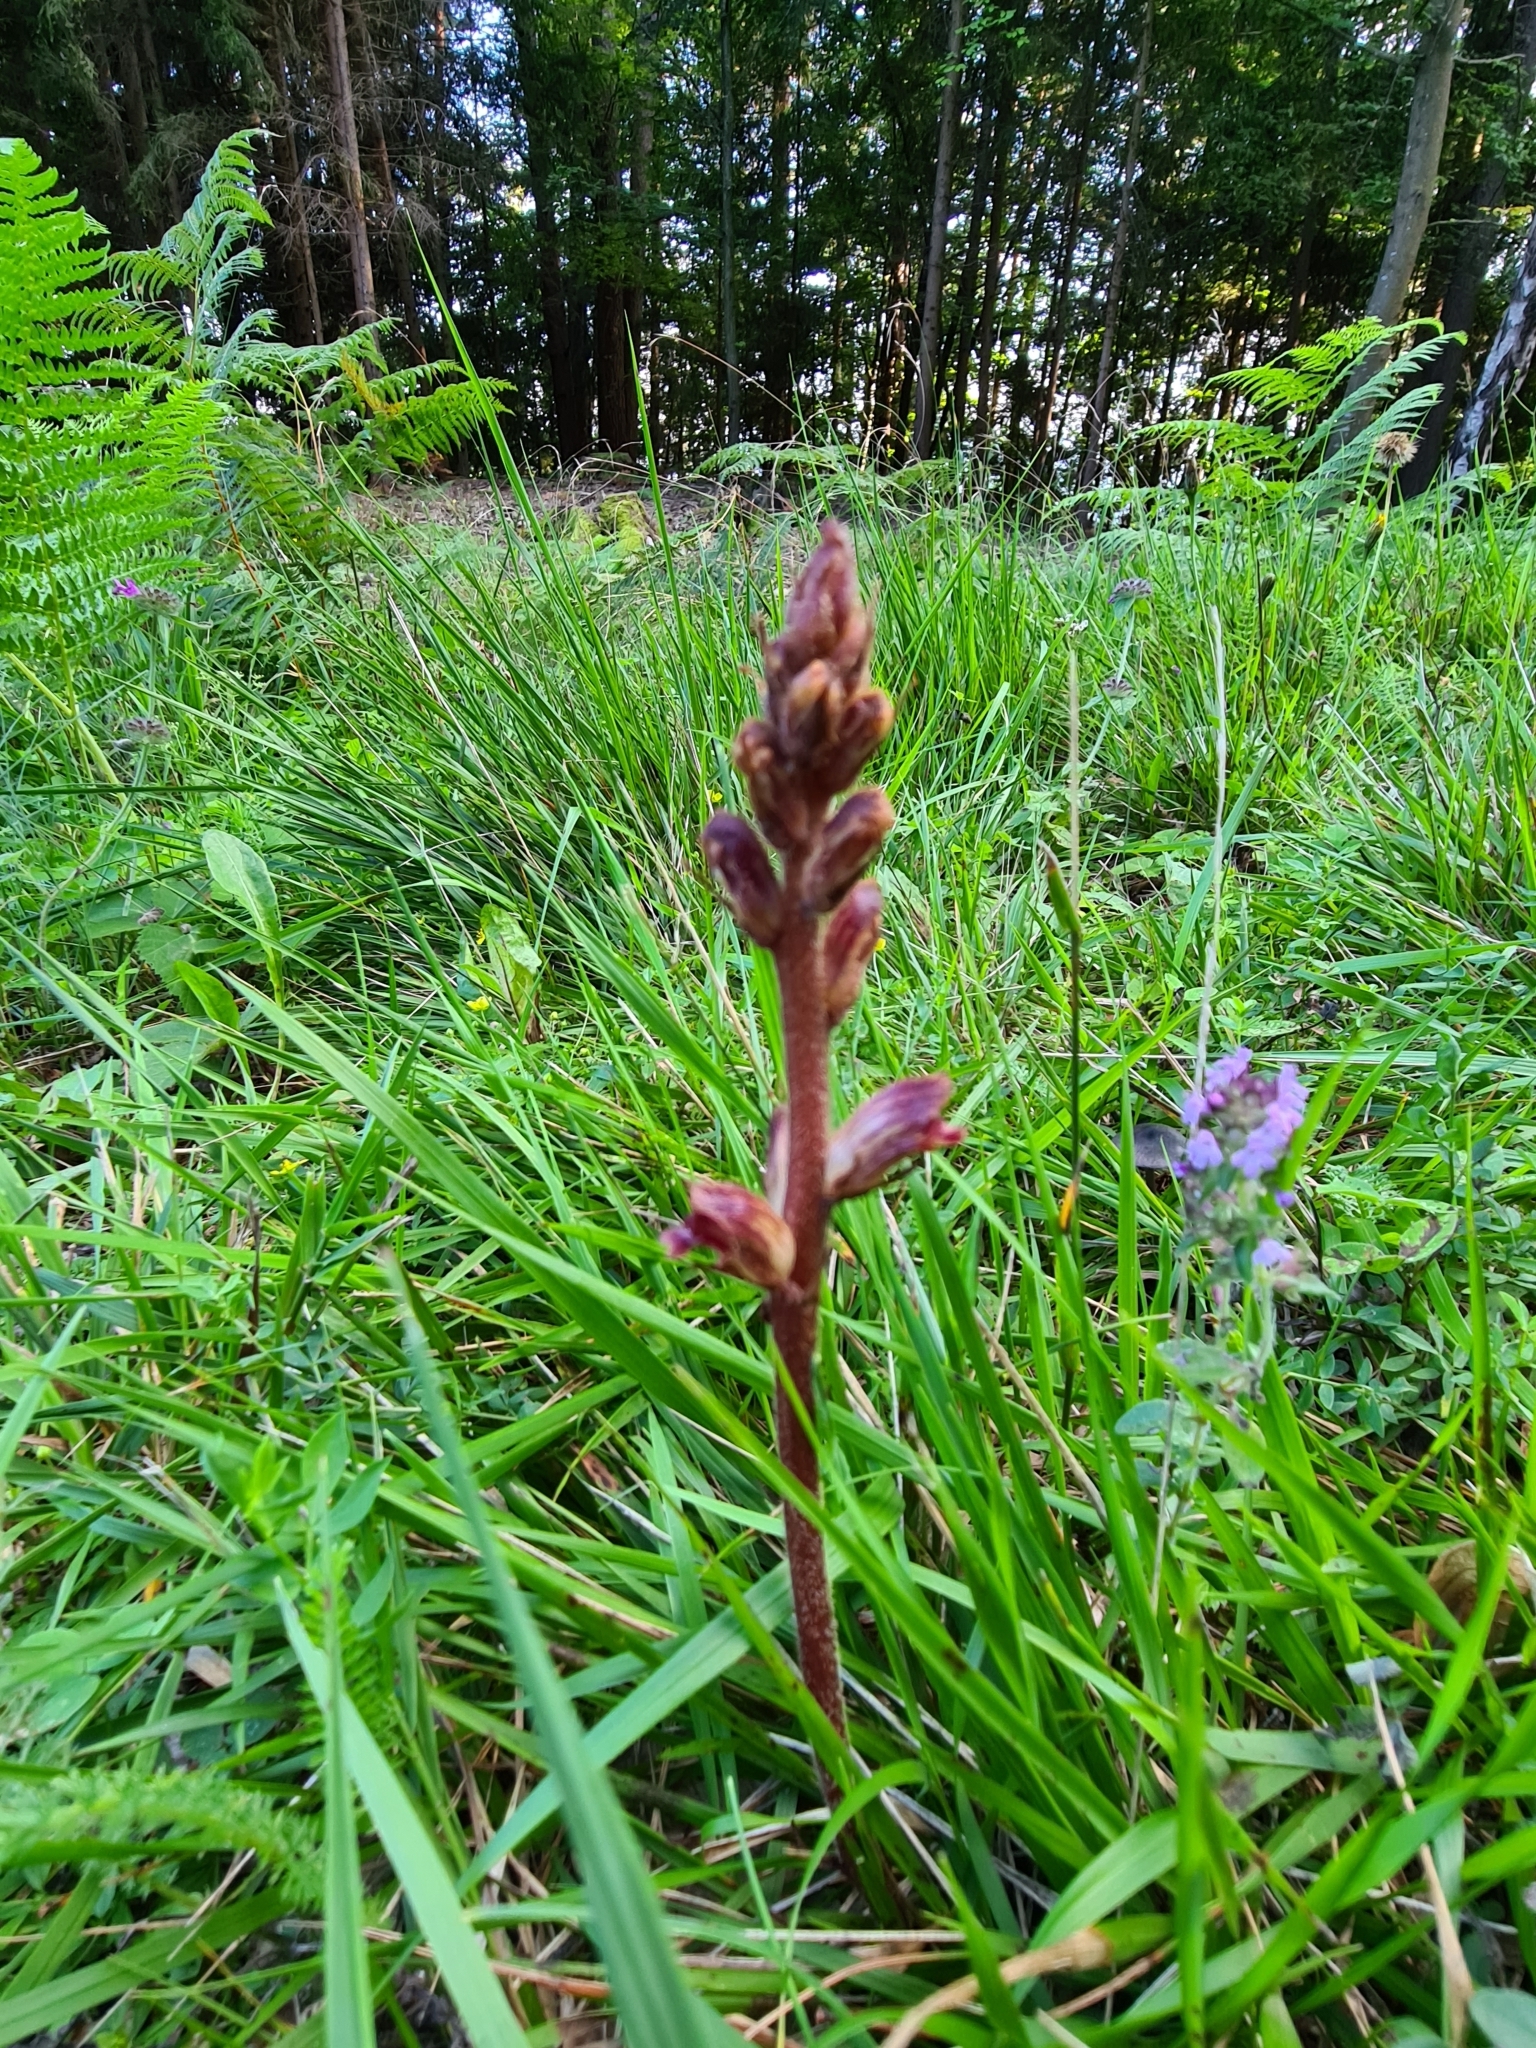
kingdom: Plantae
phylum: Tracheophyta
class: Magnoliopsida
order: Lamiales
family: Orobanchaceae
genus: Orobanche
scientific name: Orobanche gracilis
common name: Slender broomrape
